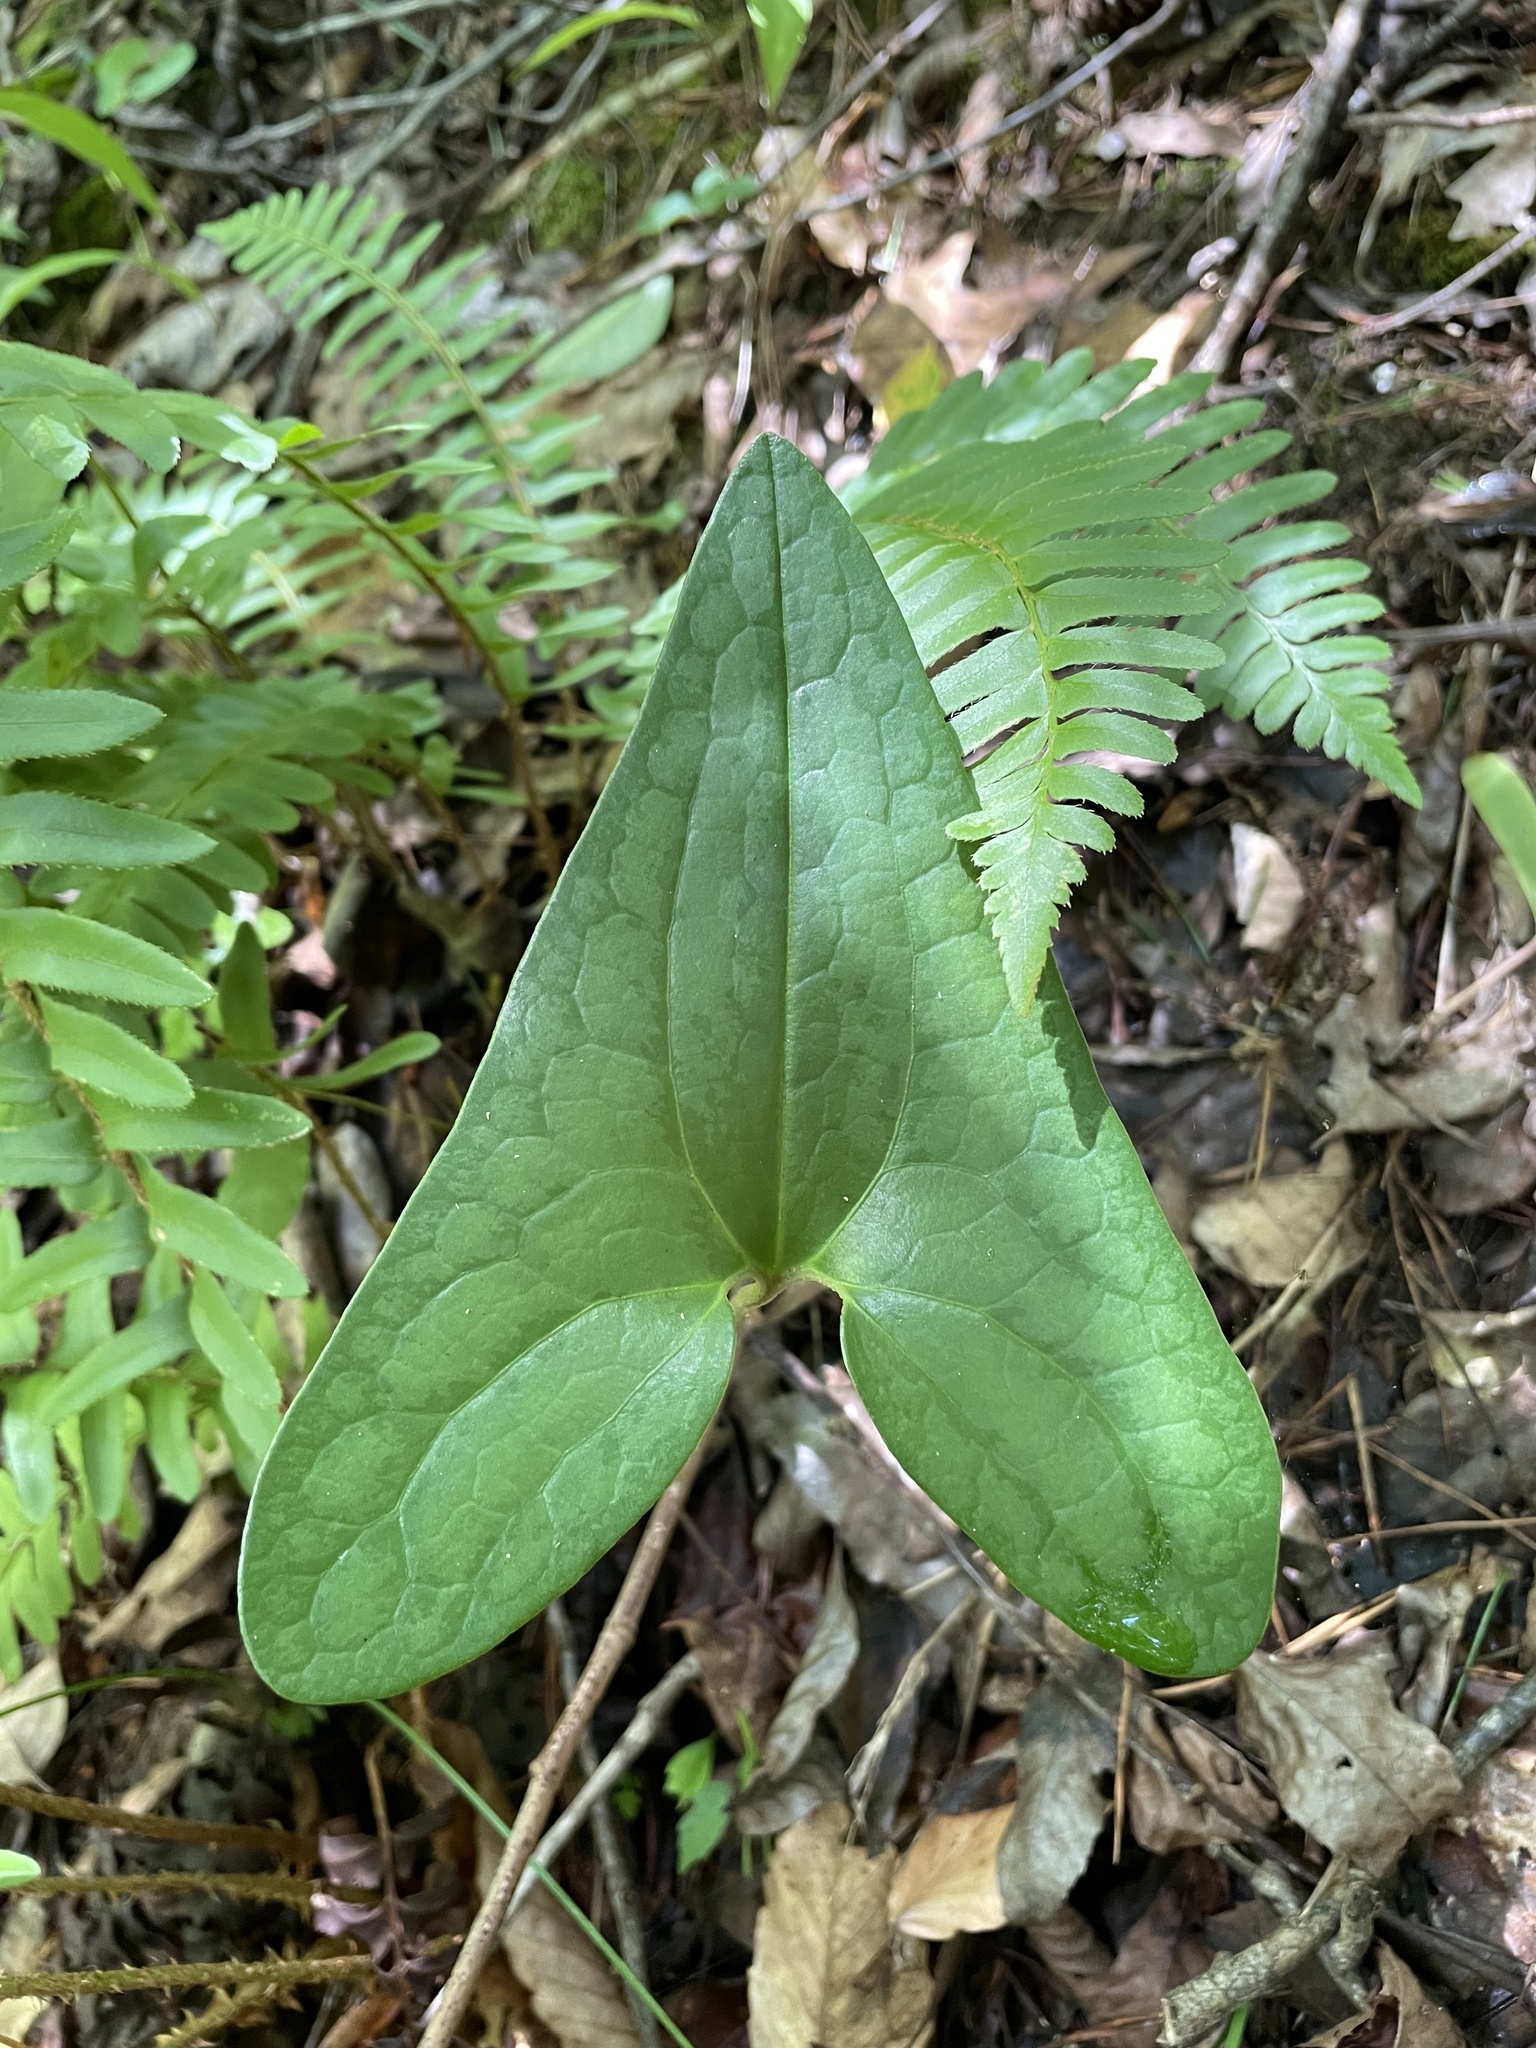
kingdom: Plantae
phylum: Tracheophyta
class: Magnoliopsida
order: Piperales
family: Aristolochiaceae
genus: Hexastylis
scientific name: Hexastylis arifolia
